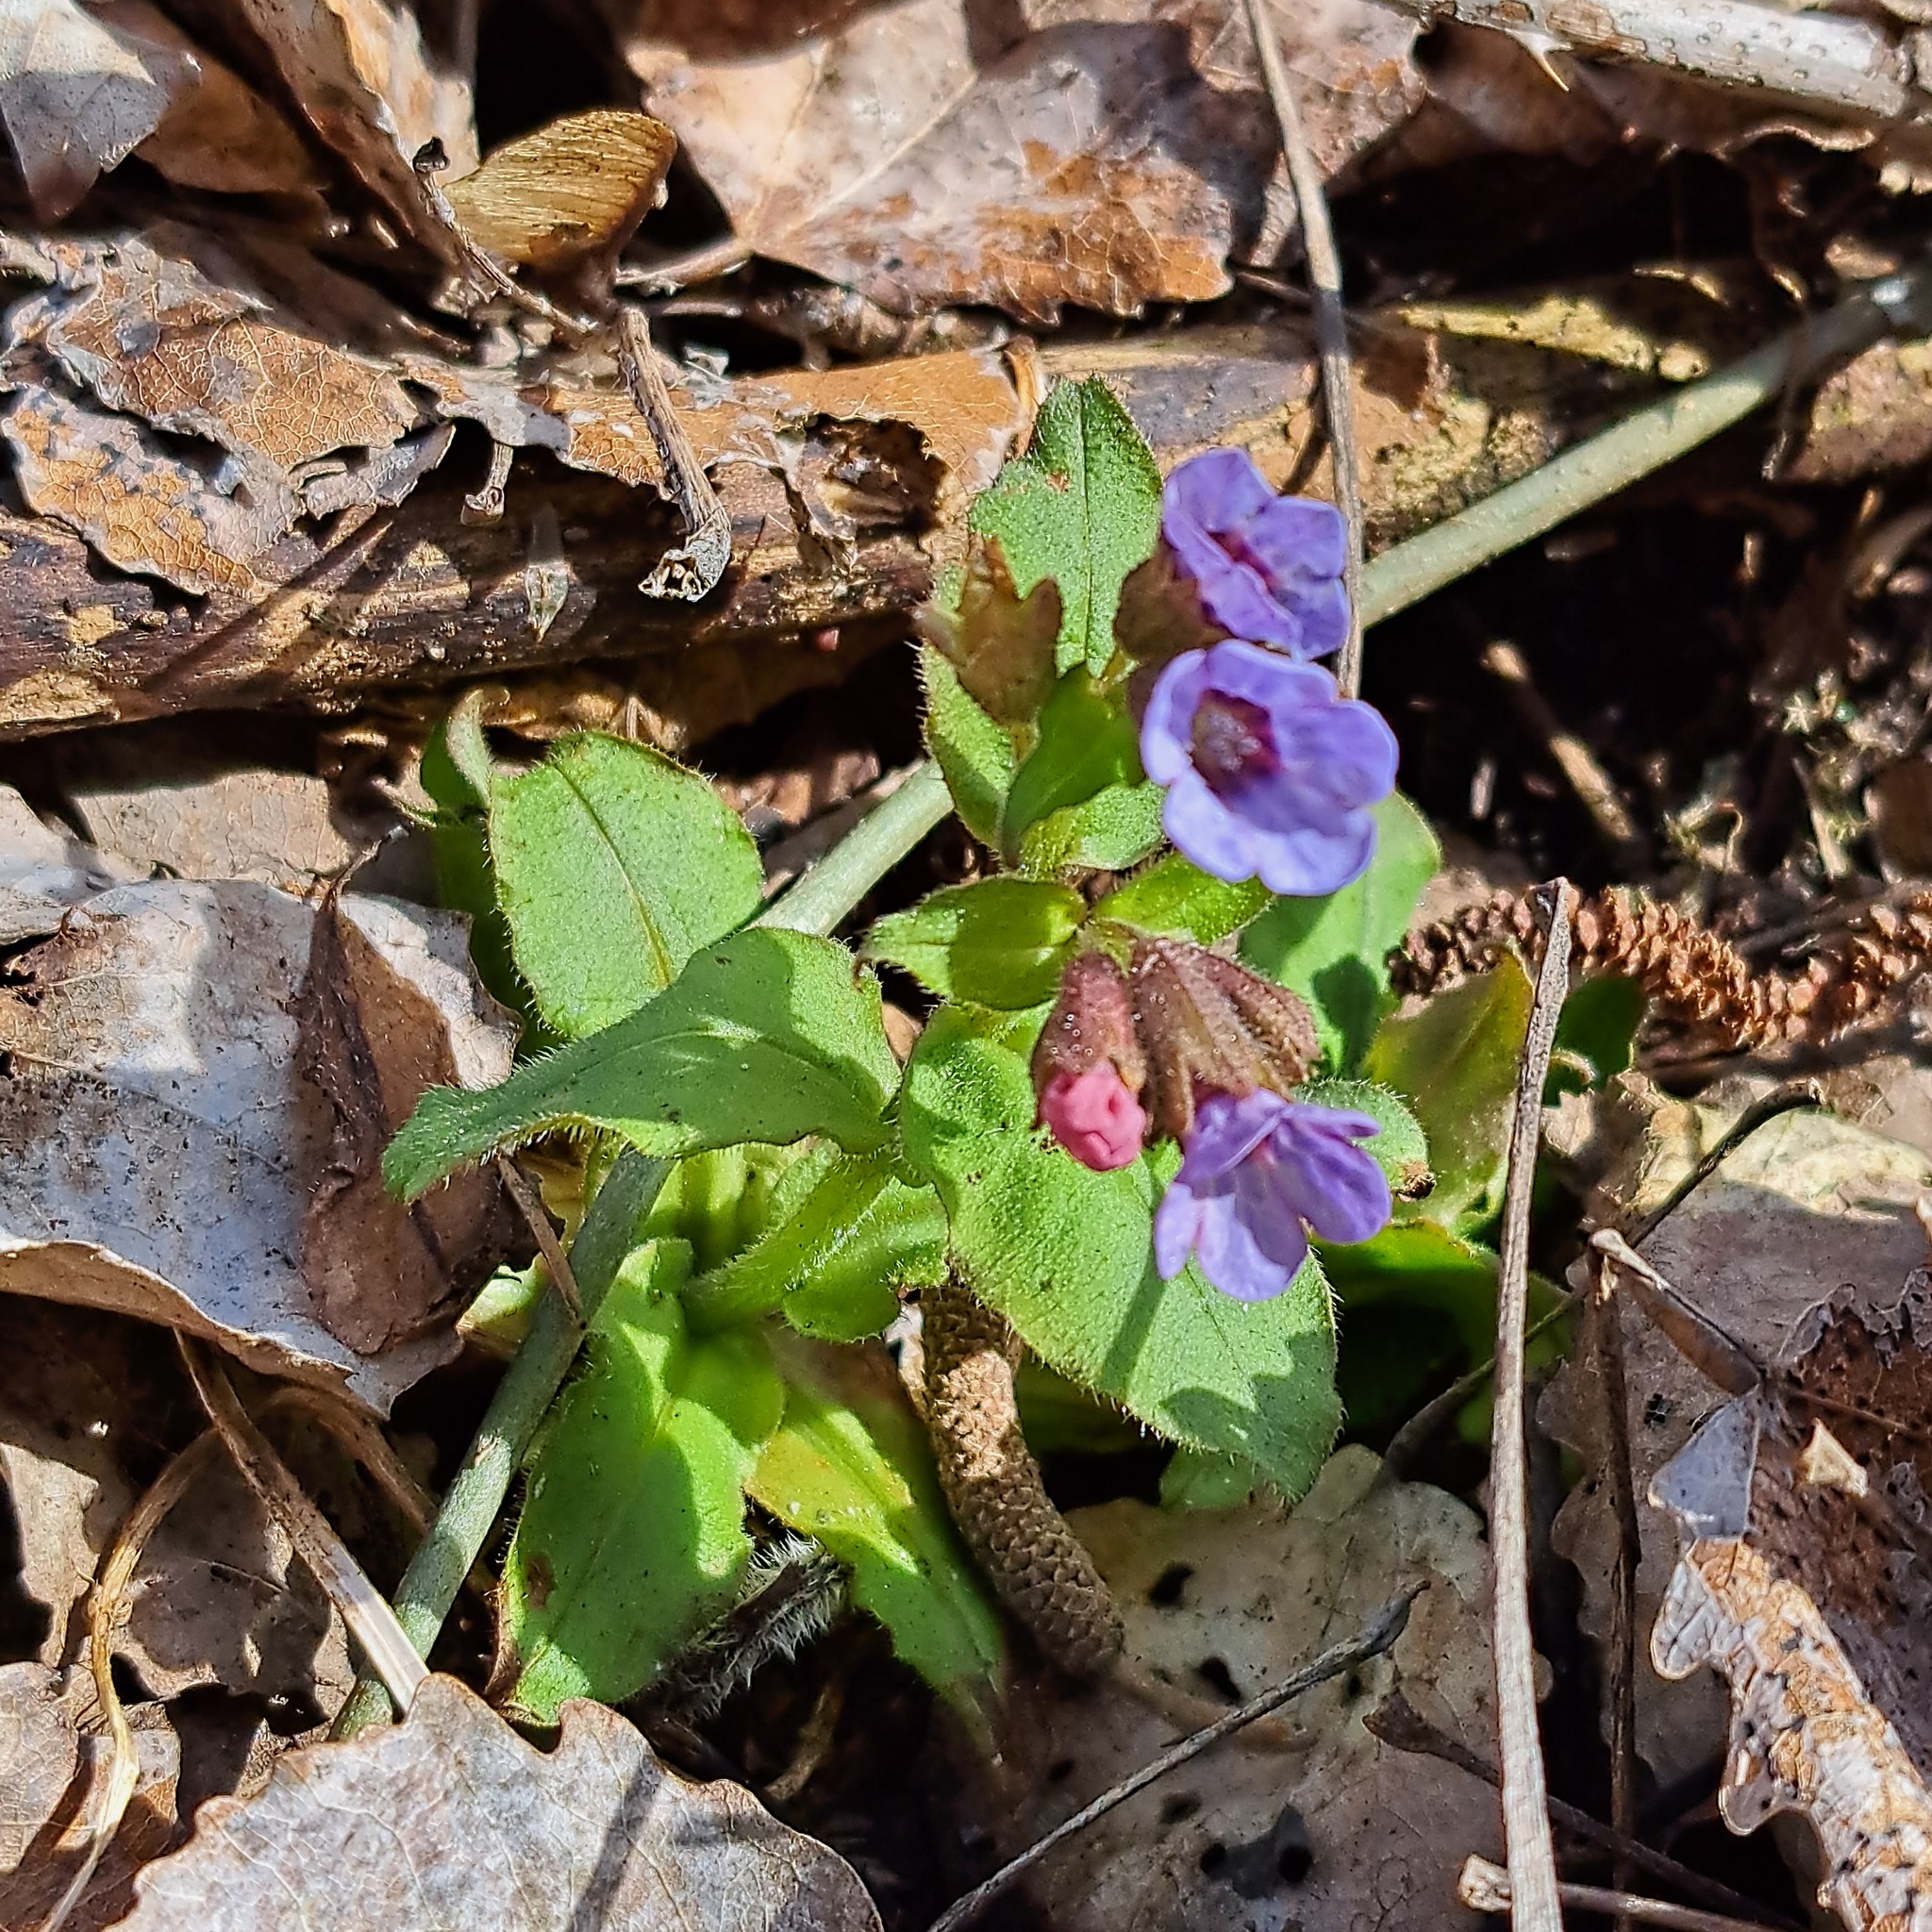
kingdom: Plantae
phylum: Tracheophyta
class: Magnoliopsida
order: Boraginales
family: Boraginaceae
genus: Pulmonaria
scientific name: Pulmonaria obscura
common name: Suffolk lungwort
